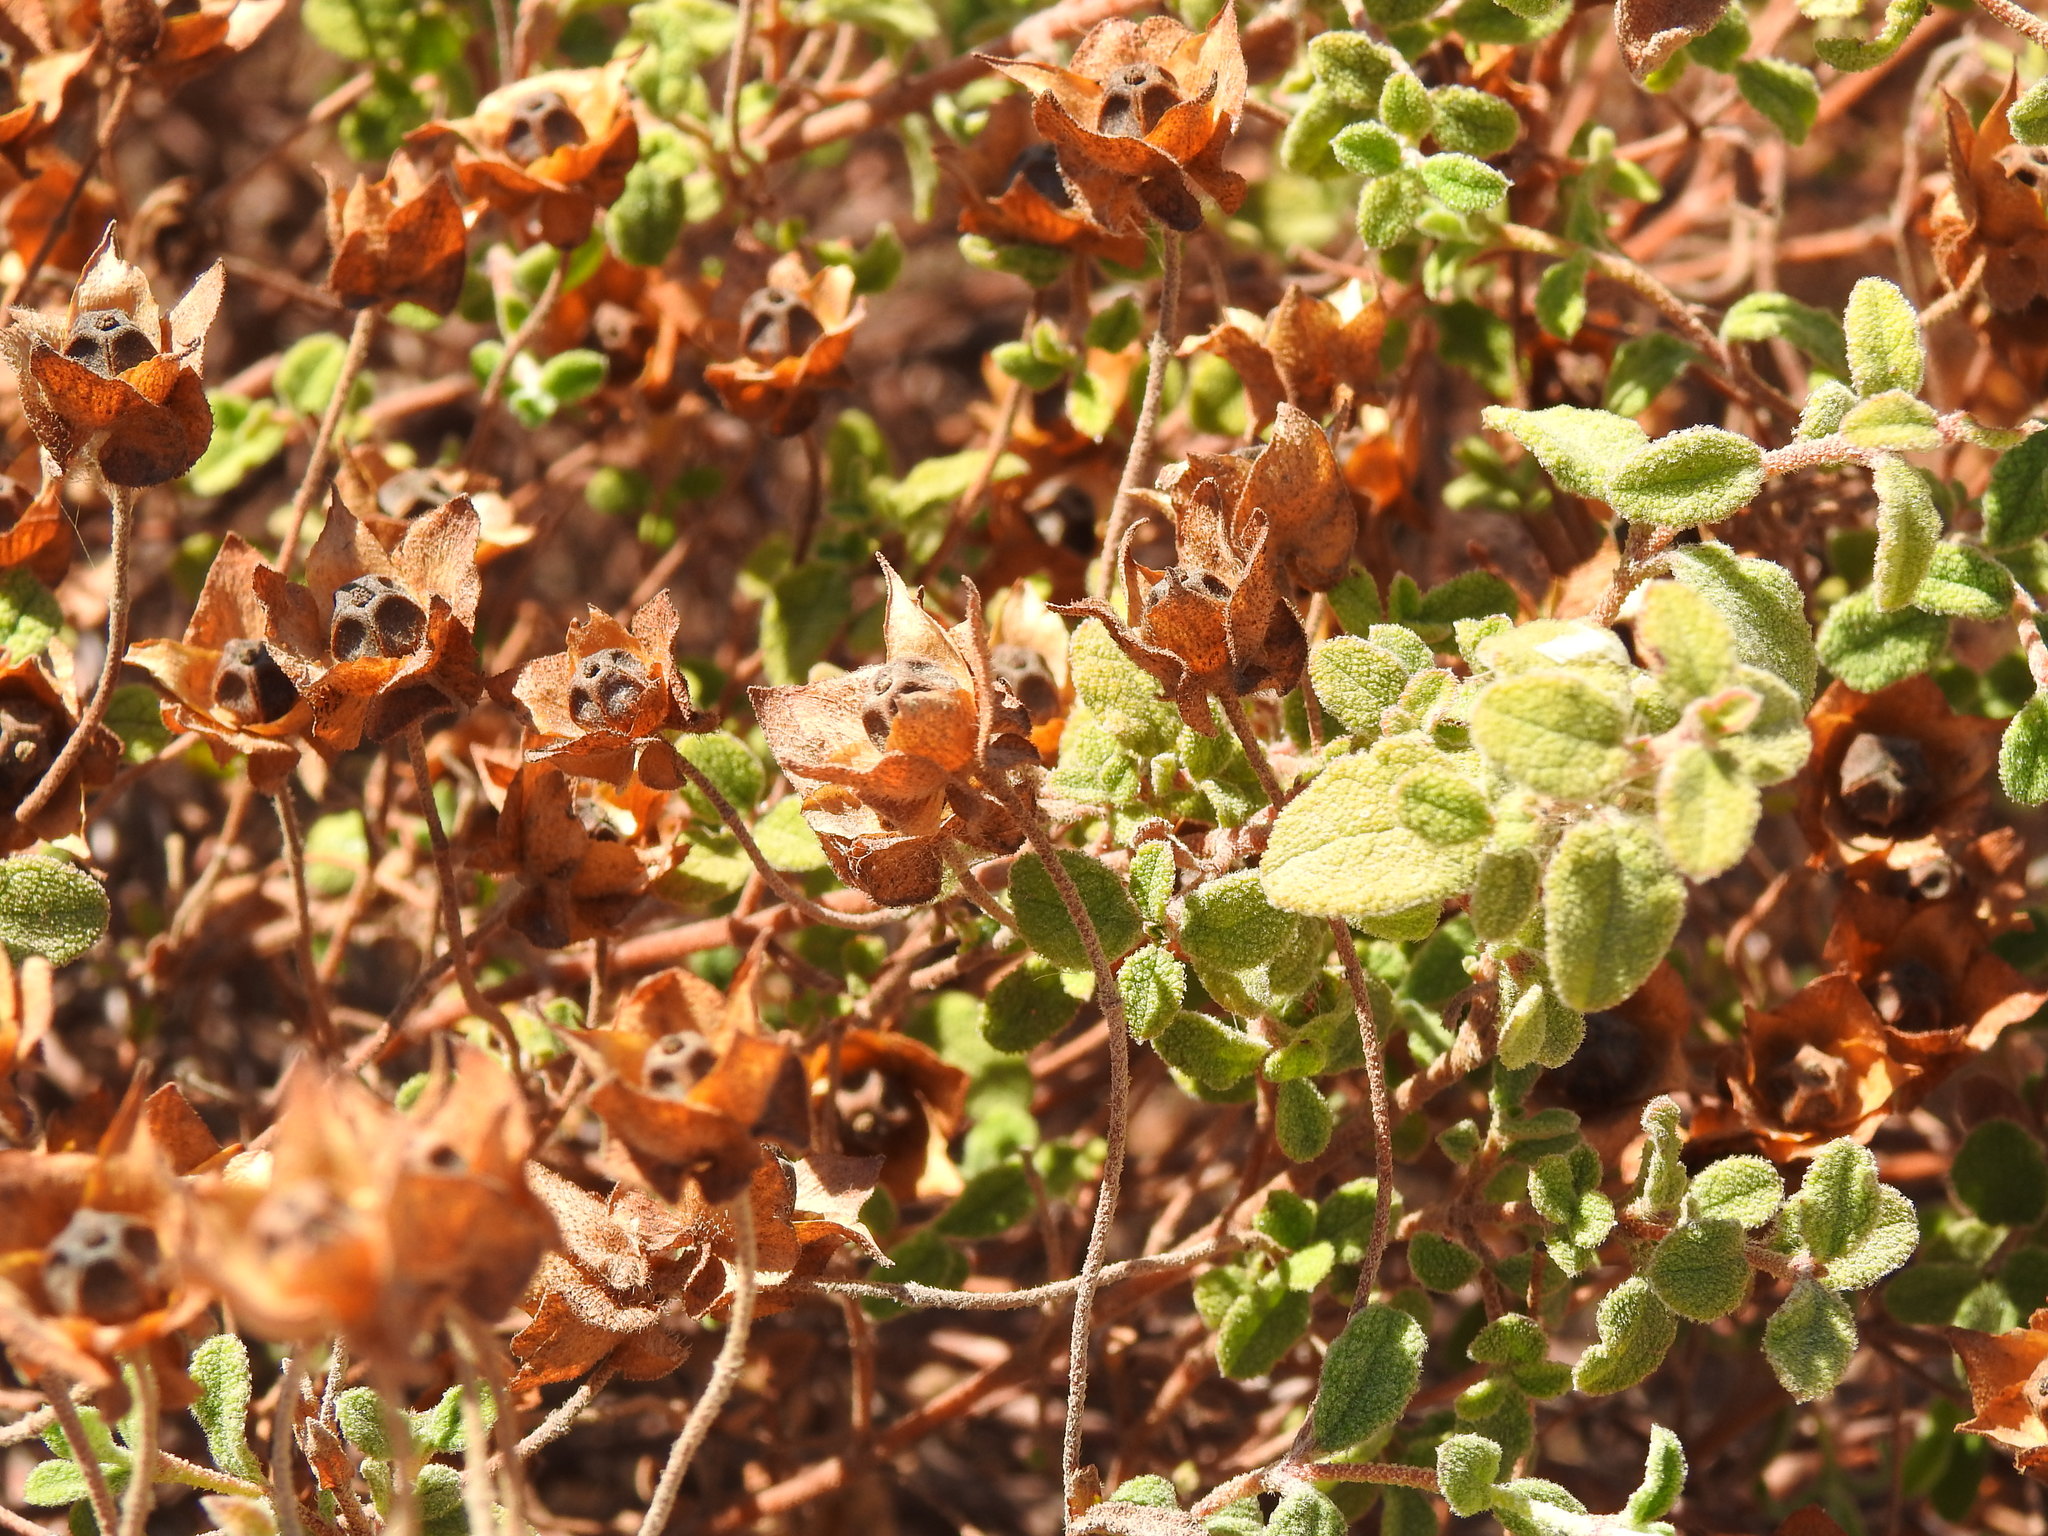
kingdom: Plantae
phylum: Tracheophyta
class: Magnoliopsida
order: Malvales
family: Cistaceae
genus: Cistus
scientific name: Cistus salviifolius
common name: Salvia cistus
